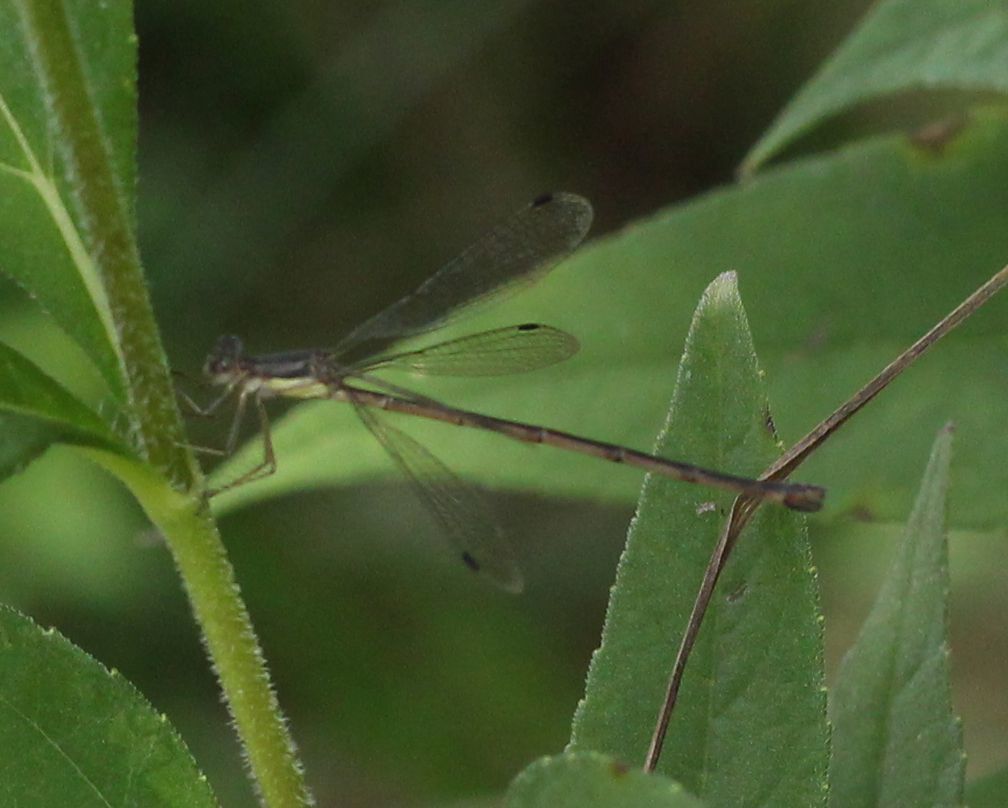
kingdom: Animalia
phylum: Arthropoda
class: Insecta
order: Odonata
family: Lestidae
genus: Lestes
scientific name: Lestes rectangularis
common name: Slender spreadwing
